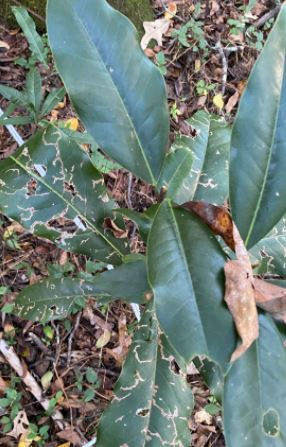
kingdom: Plantae
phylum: Tracheophyta
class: Magnoliopsida
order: Magnoliales
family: Magnoliaceae
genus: Magnolia
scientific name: Magnolia grandiflora
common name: Southern magnolia
